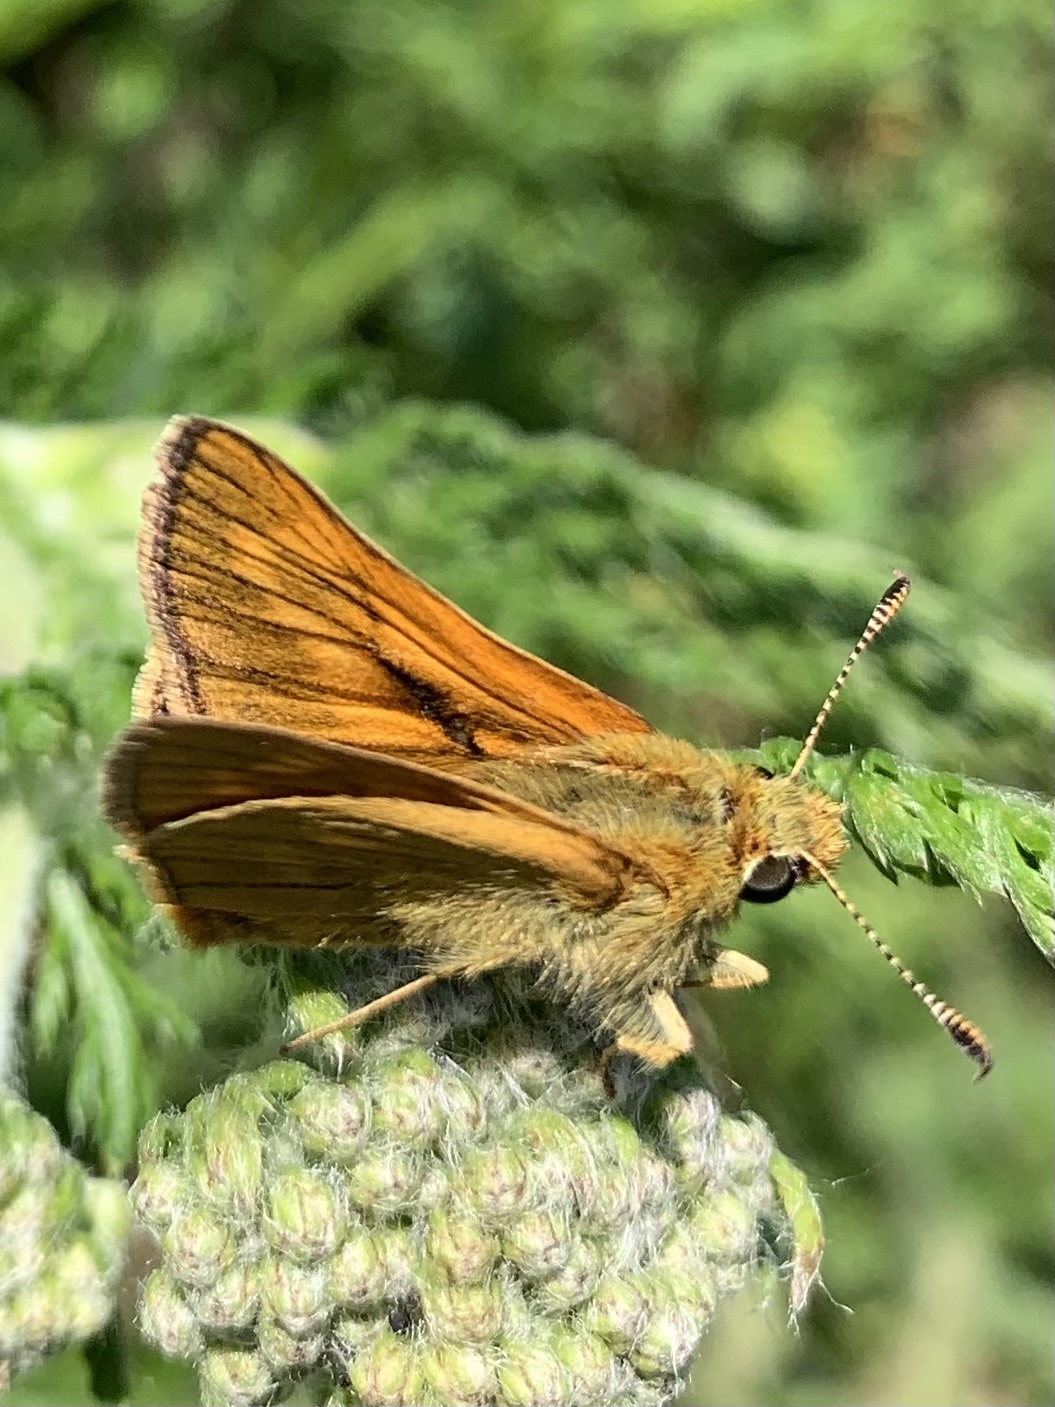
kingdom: Animalia
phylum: Arthropoda
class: Insecta
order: Lepidoptera
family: Hesperiidae
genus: Ochlodes
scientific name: Ochlodes venata
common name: Large skipper
